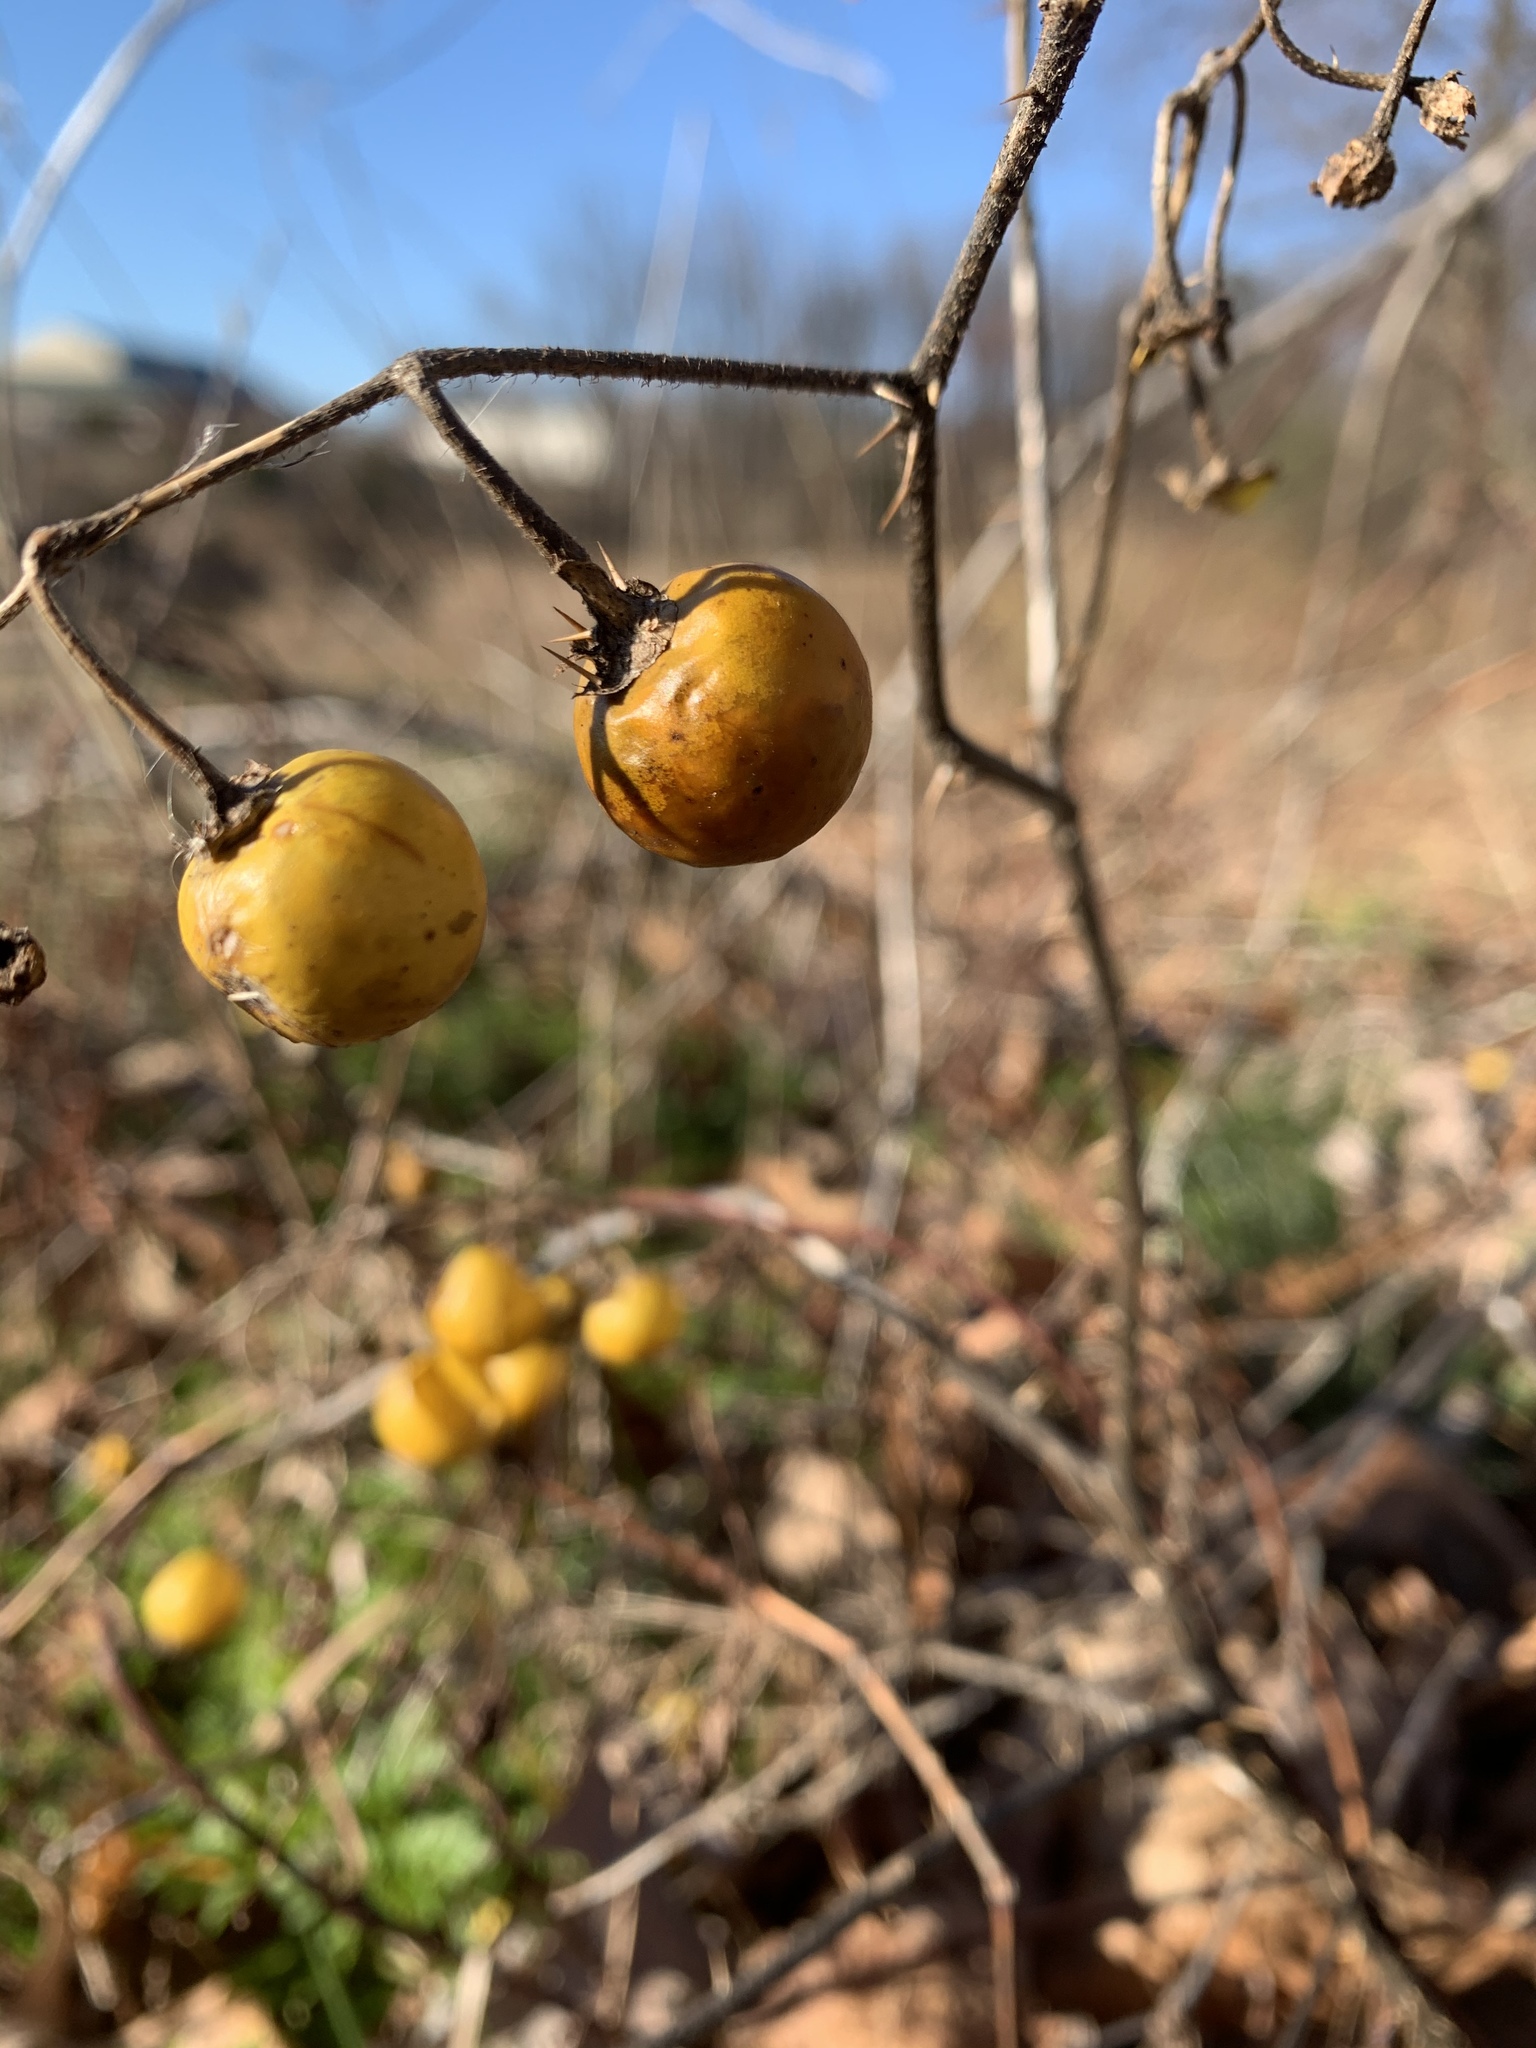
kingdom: Plantae
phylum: Tracheophyta
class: Magnoliopsida
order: Solanales
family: Solanaceae
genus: Solanum
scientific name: Solanum carolinense
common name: Horse-nettle
